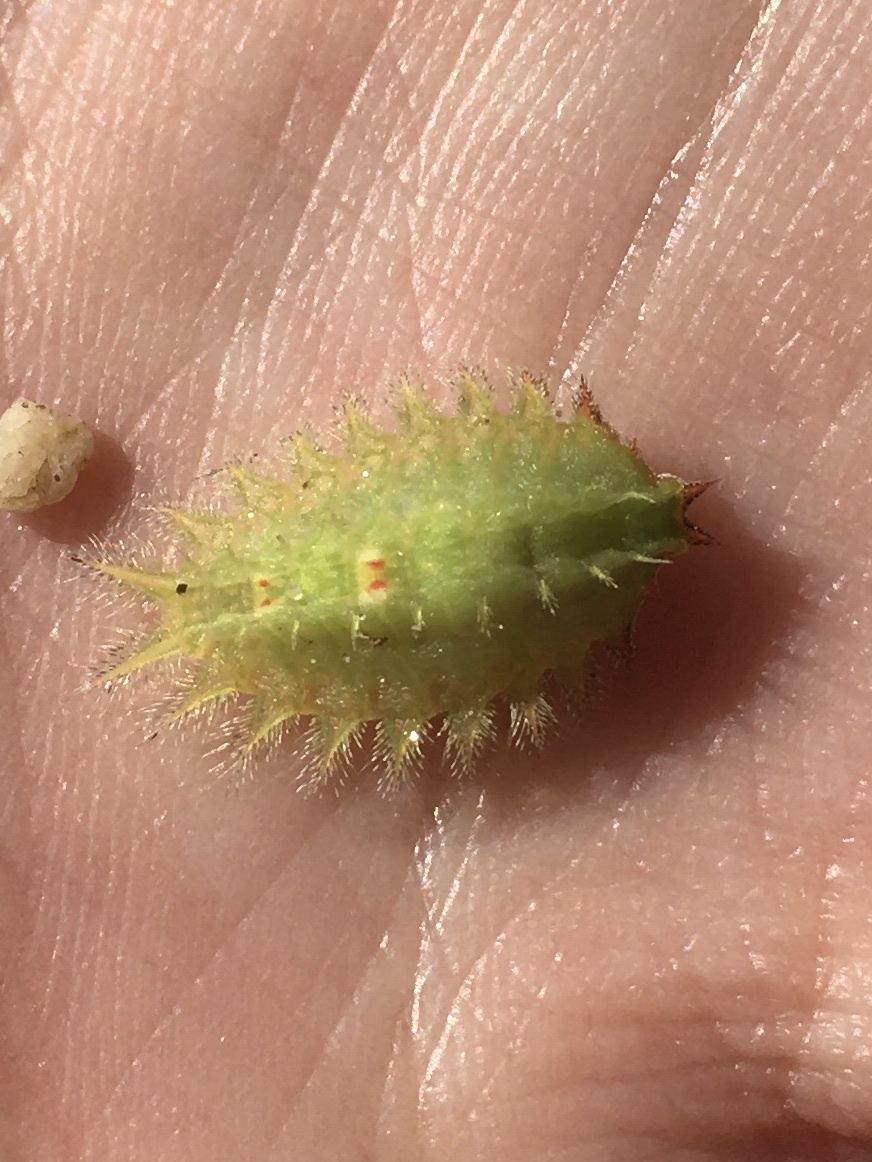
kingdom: Animalia
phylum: Arthropoda
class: Insecta
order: Lepidoptera
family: Limacodidae
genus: Isa
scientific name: Isa textula
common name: Crowned slug moth
